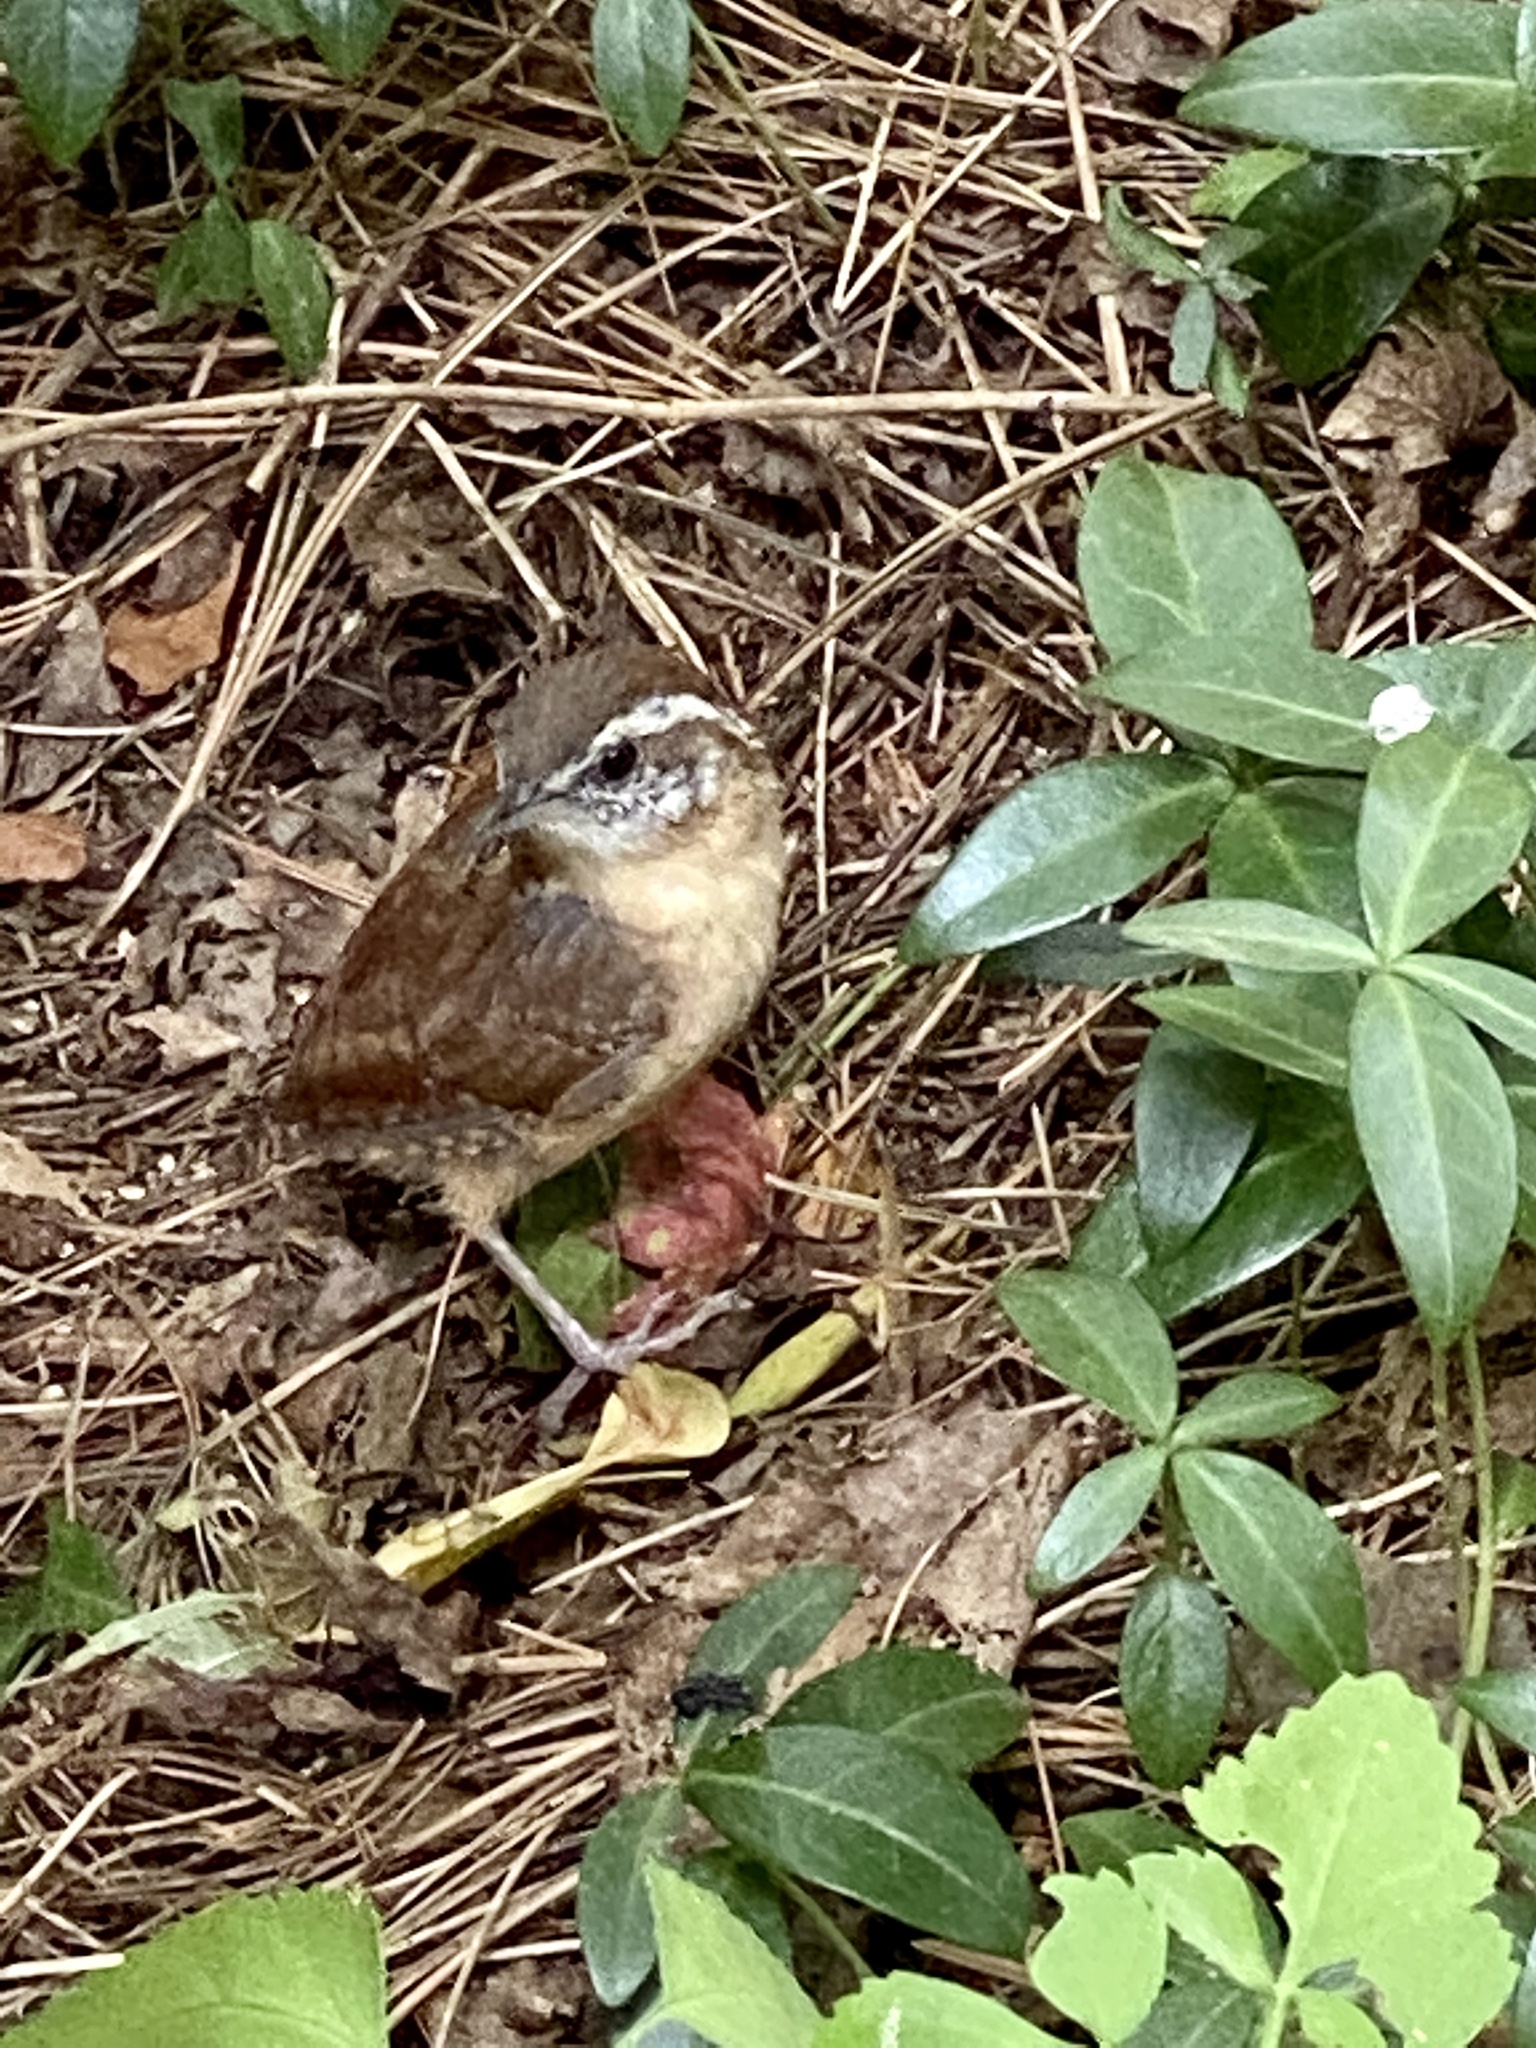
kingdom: Animalia
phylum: Chordata
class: Aves
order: Passeriformes
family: Troglodytidae
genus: Thryothorus
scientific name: Thryothorus ludovicianus
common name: Carolina wren
